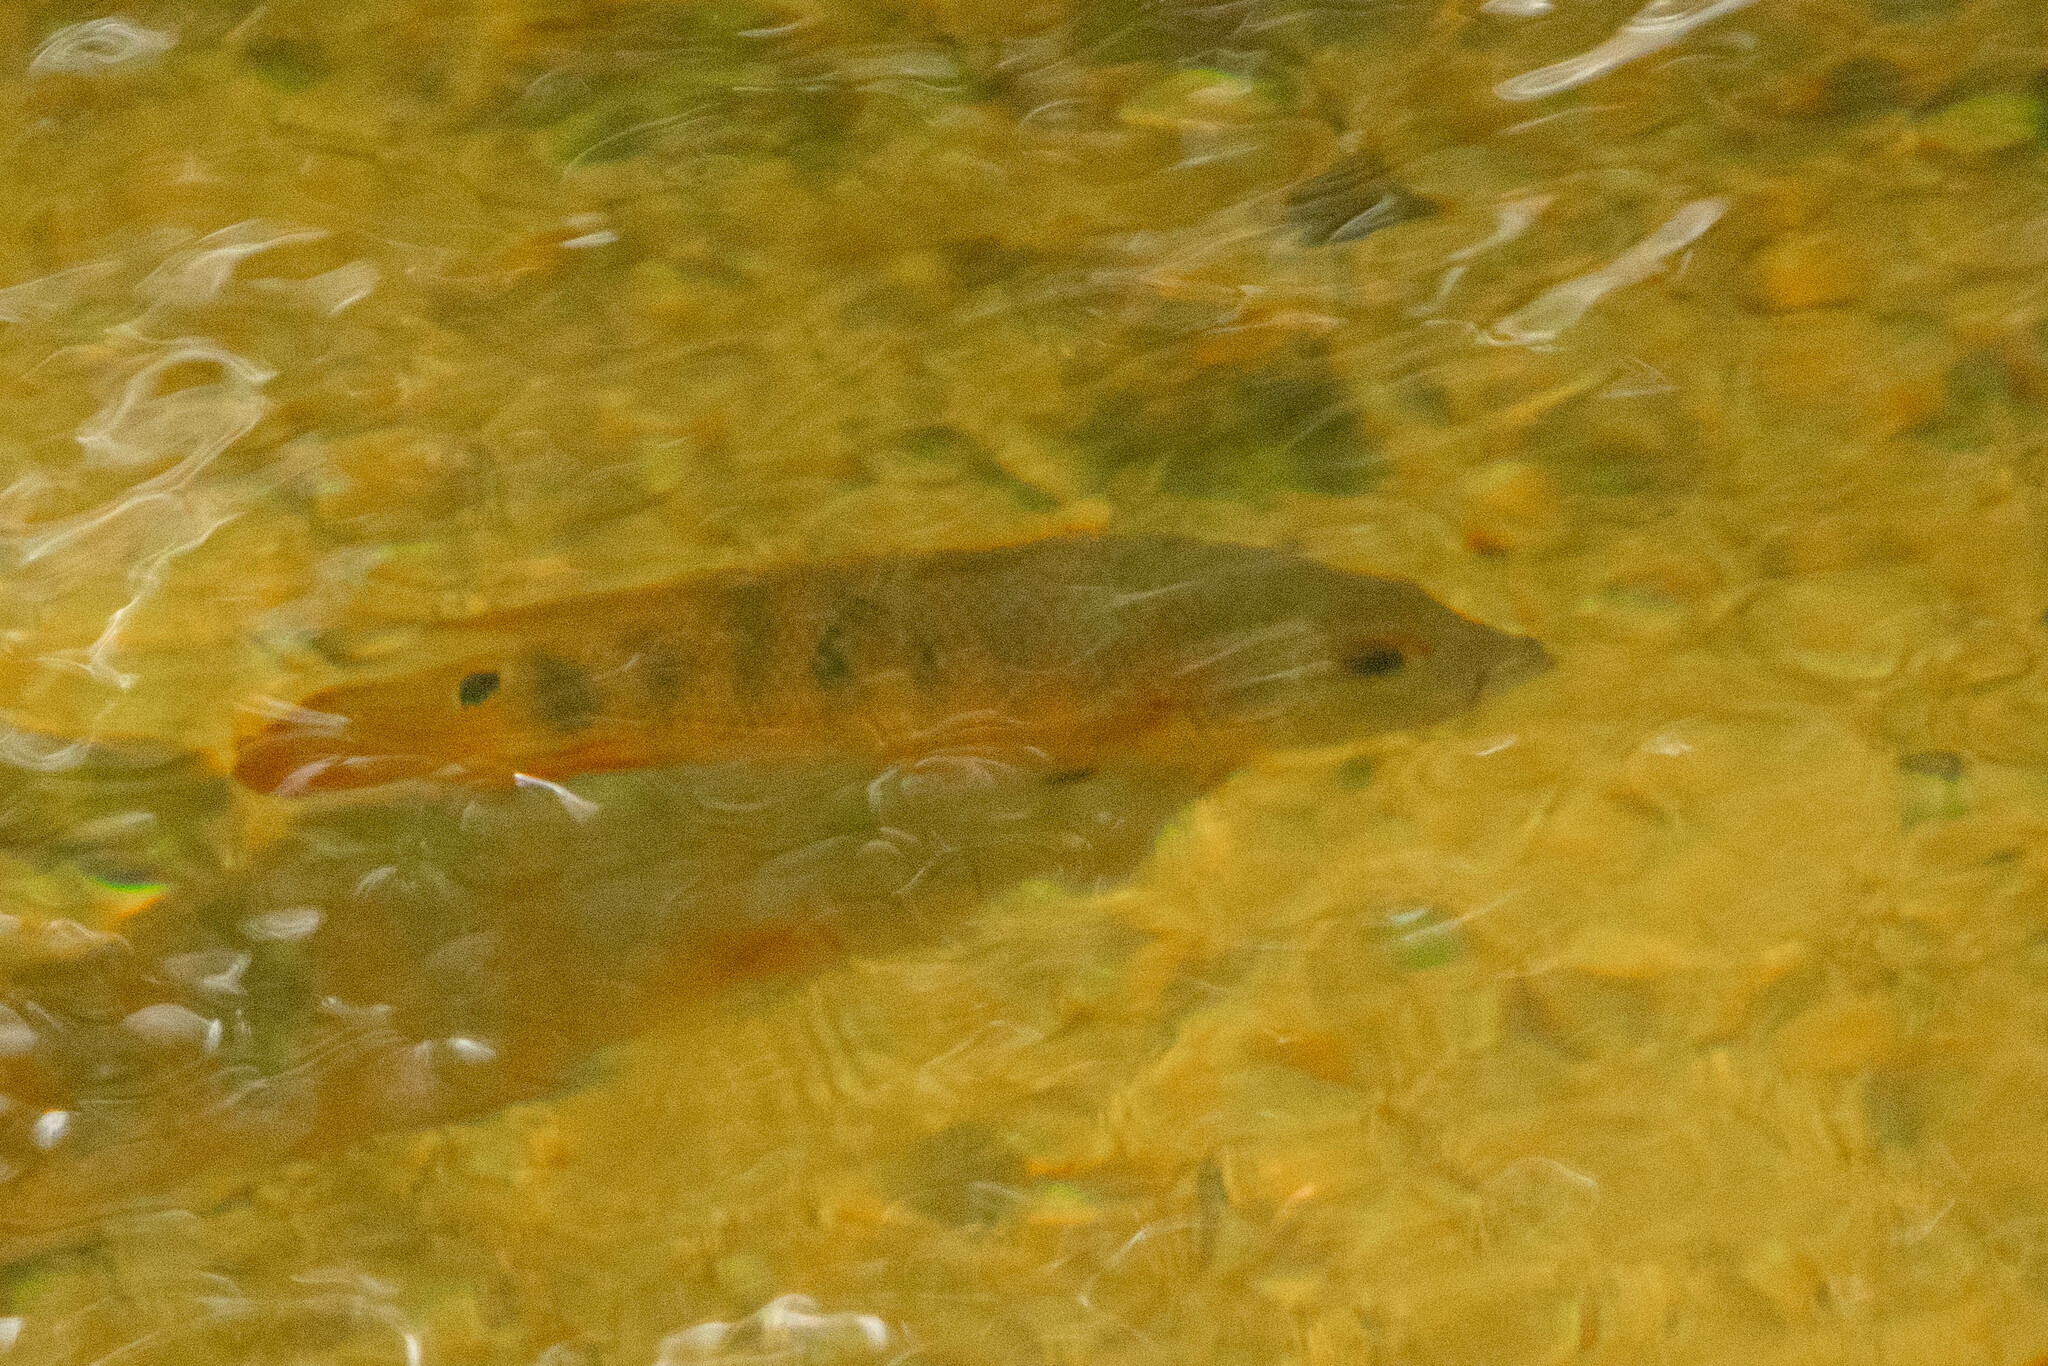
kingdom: Animalia
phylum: Chordata
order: Perciformes
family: Cichlidae
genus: Mayaheros
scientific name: Mayaheros urophthalmus
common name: Mayan cichlid
